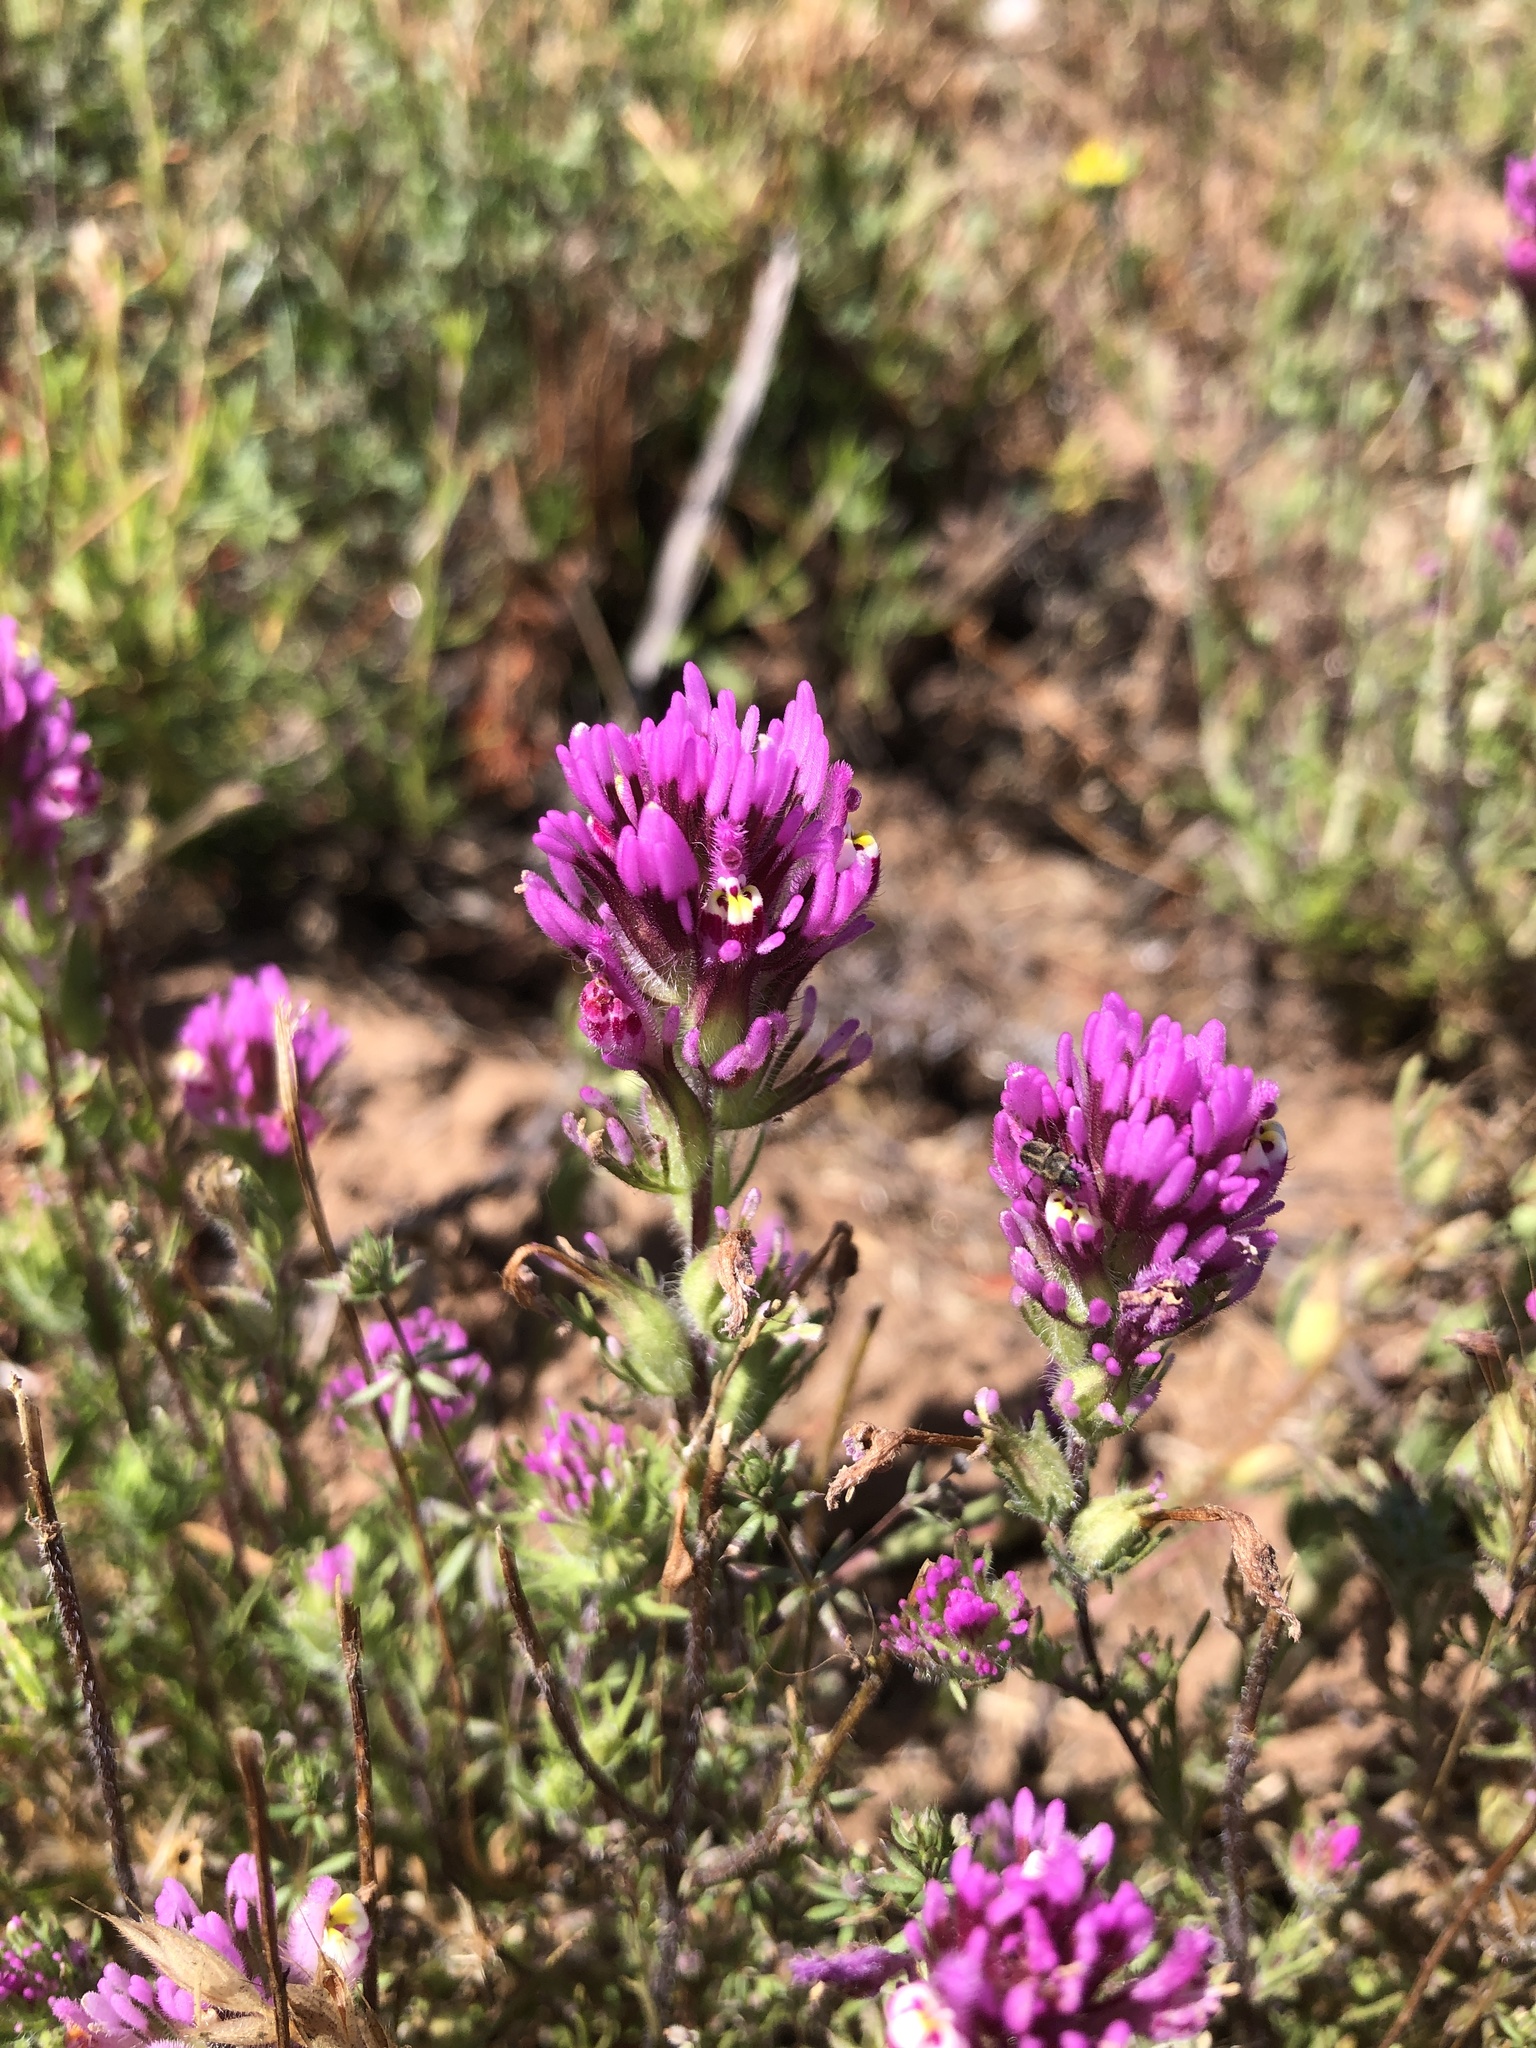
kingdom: Plantae
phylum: Tracheophyta
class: Magnoliopsida
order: Lamiales
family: Orobanchaceae
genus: Castilleja
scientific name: Castilleja exserta
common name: Purple owl-clover
